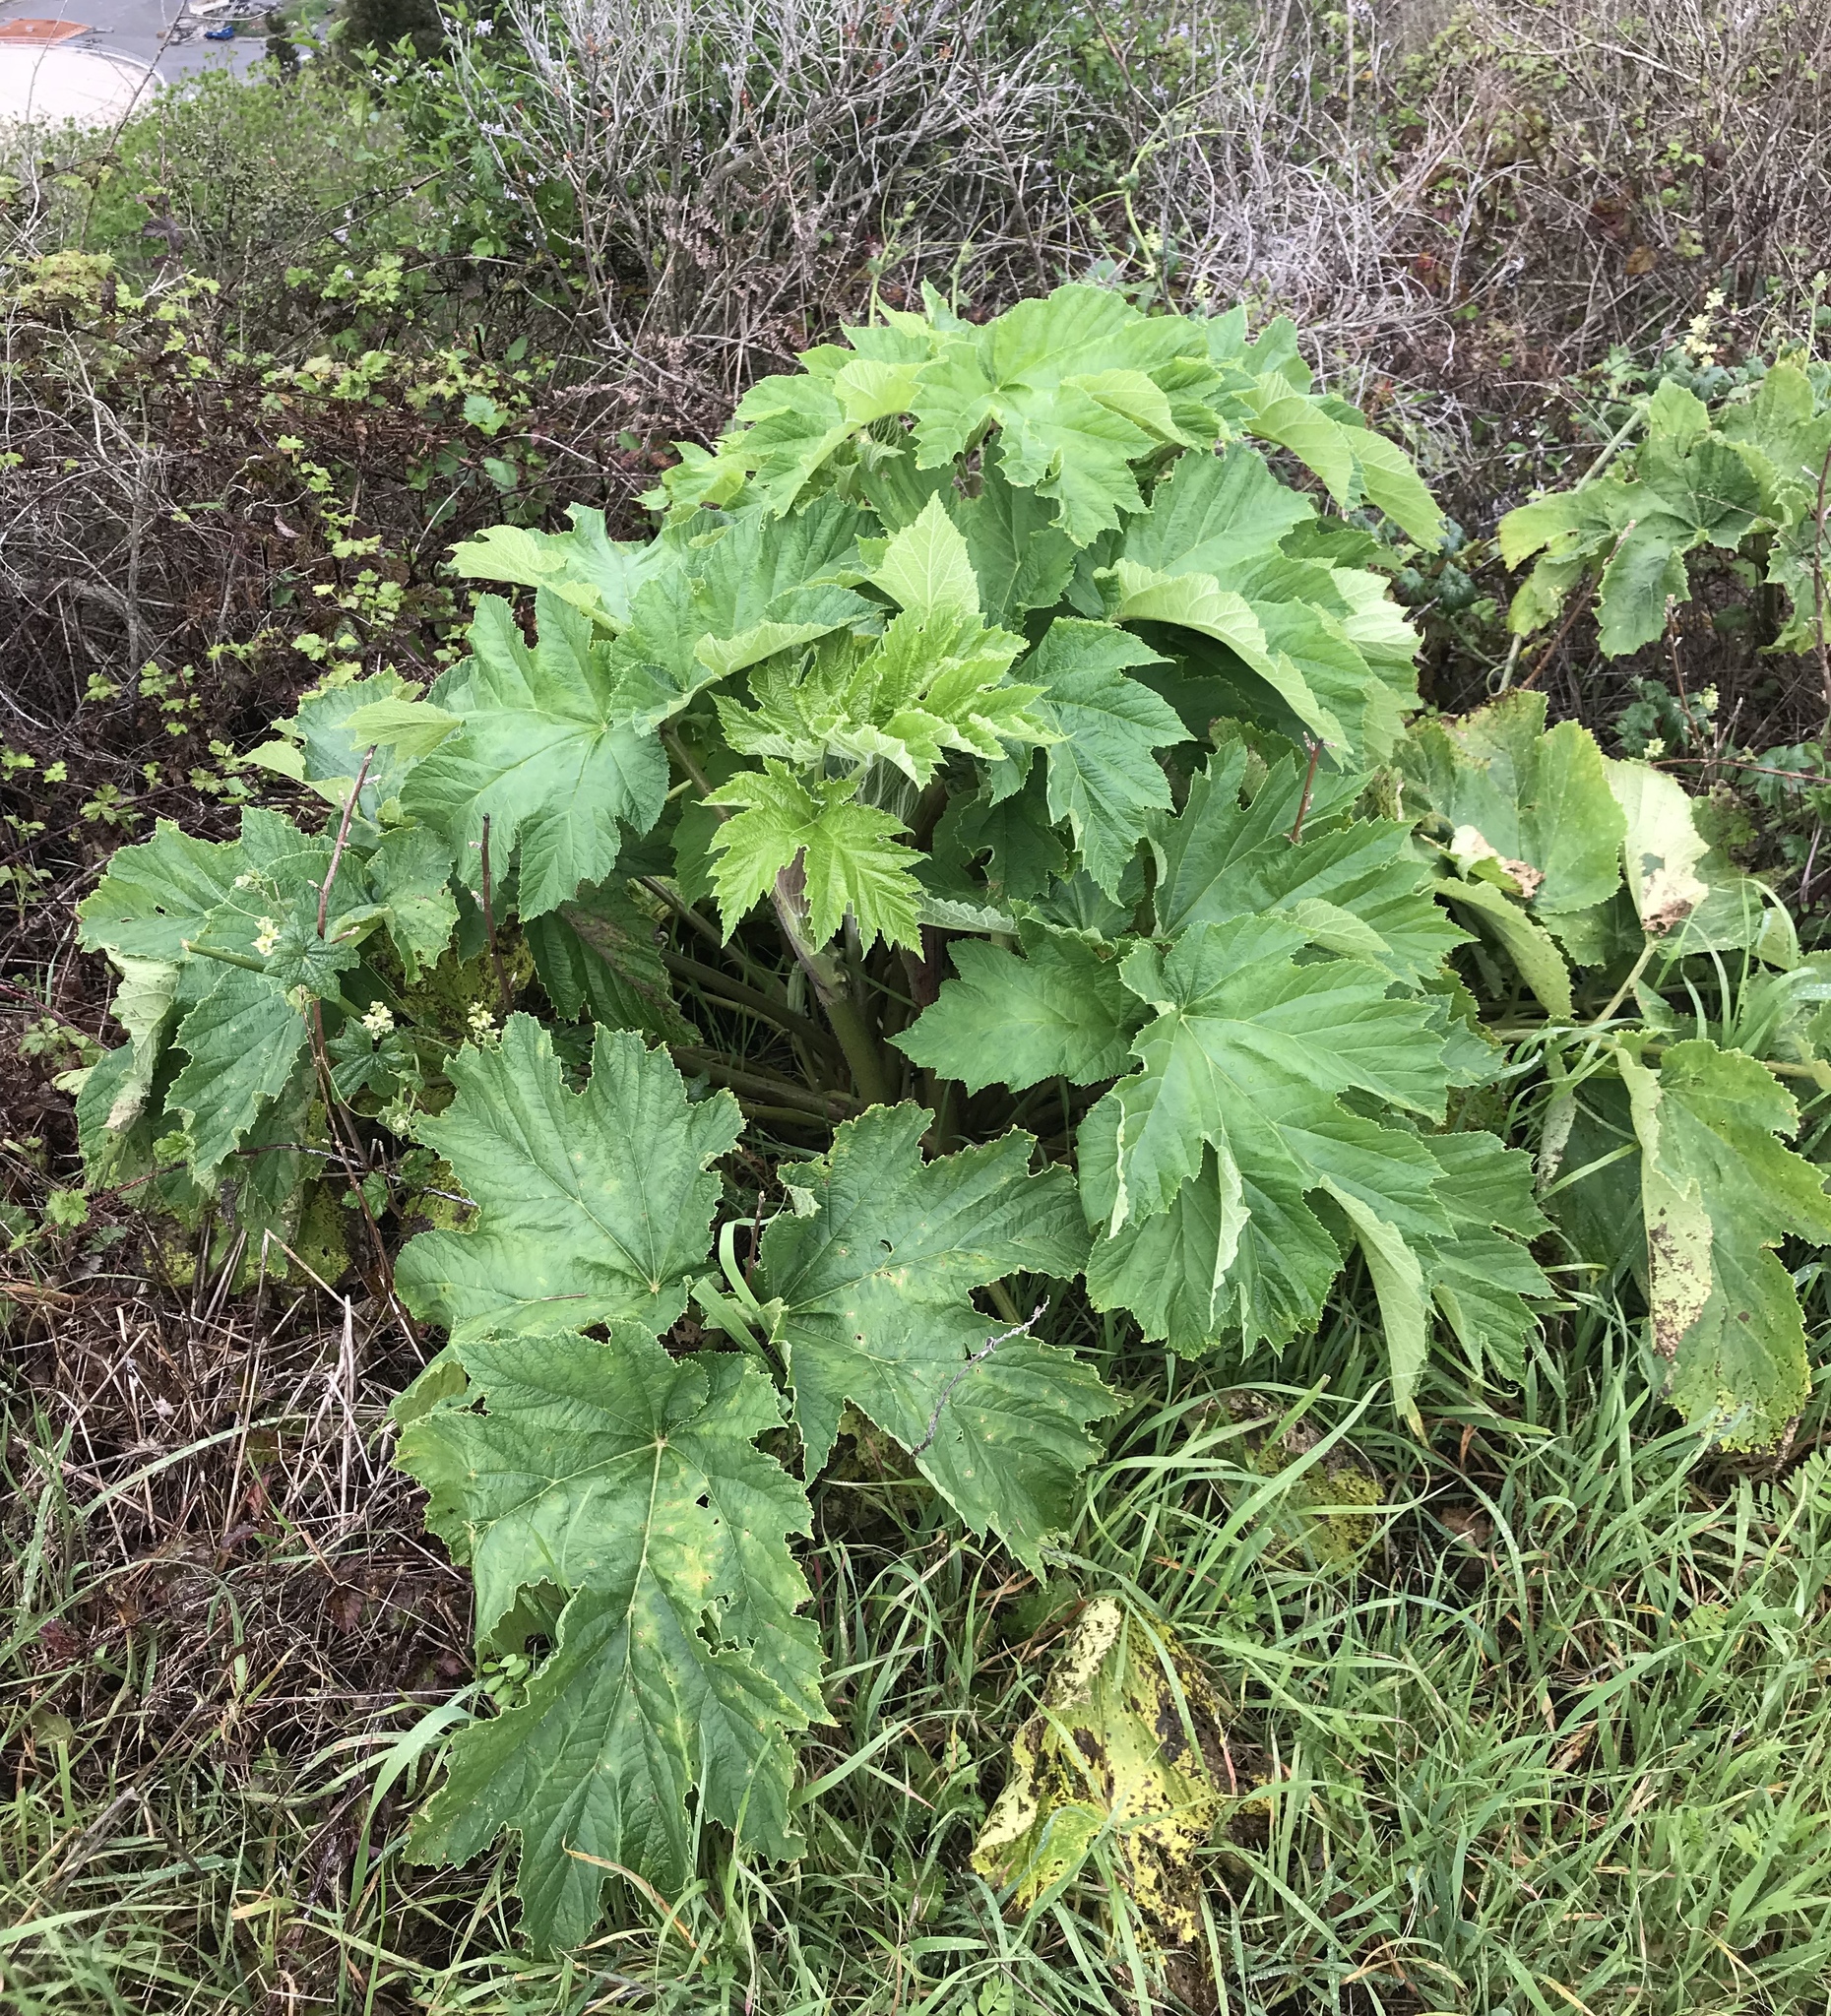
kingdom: Plantae
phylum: Tracheophyta
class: Magnoliopsida
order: Apiales
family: Apiaceae
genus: Heracleum
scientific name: Heracleum maximum
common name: American cow parsnip
